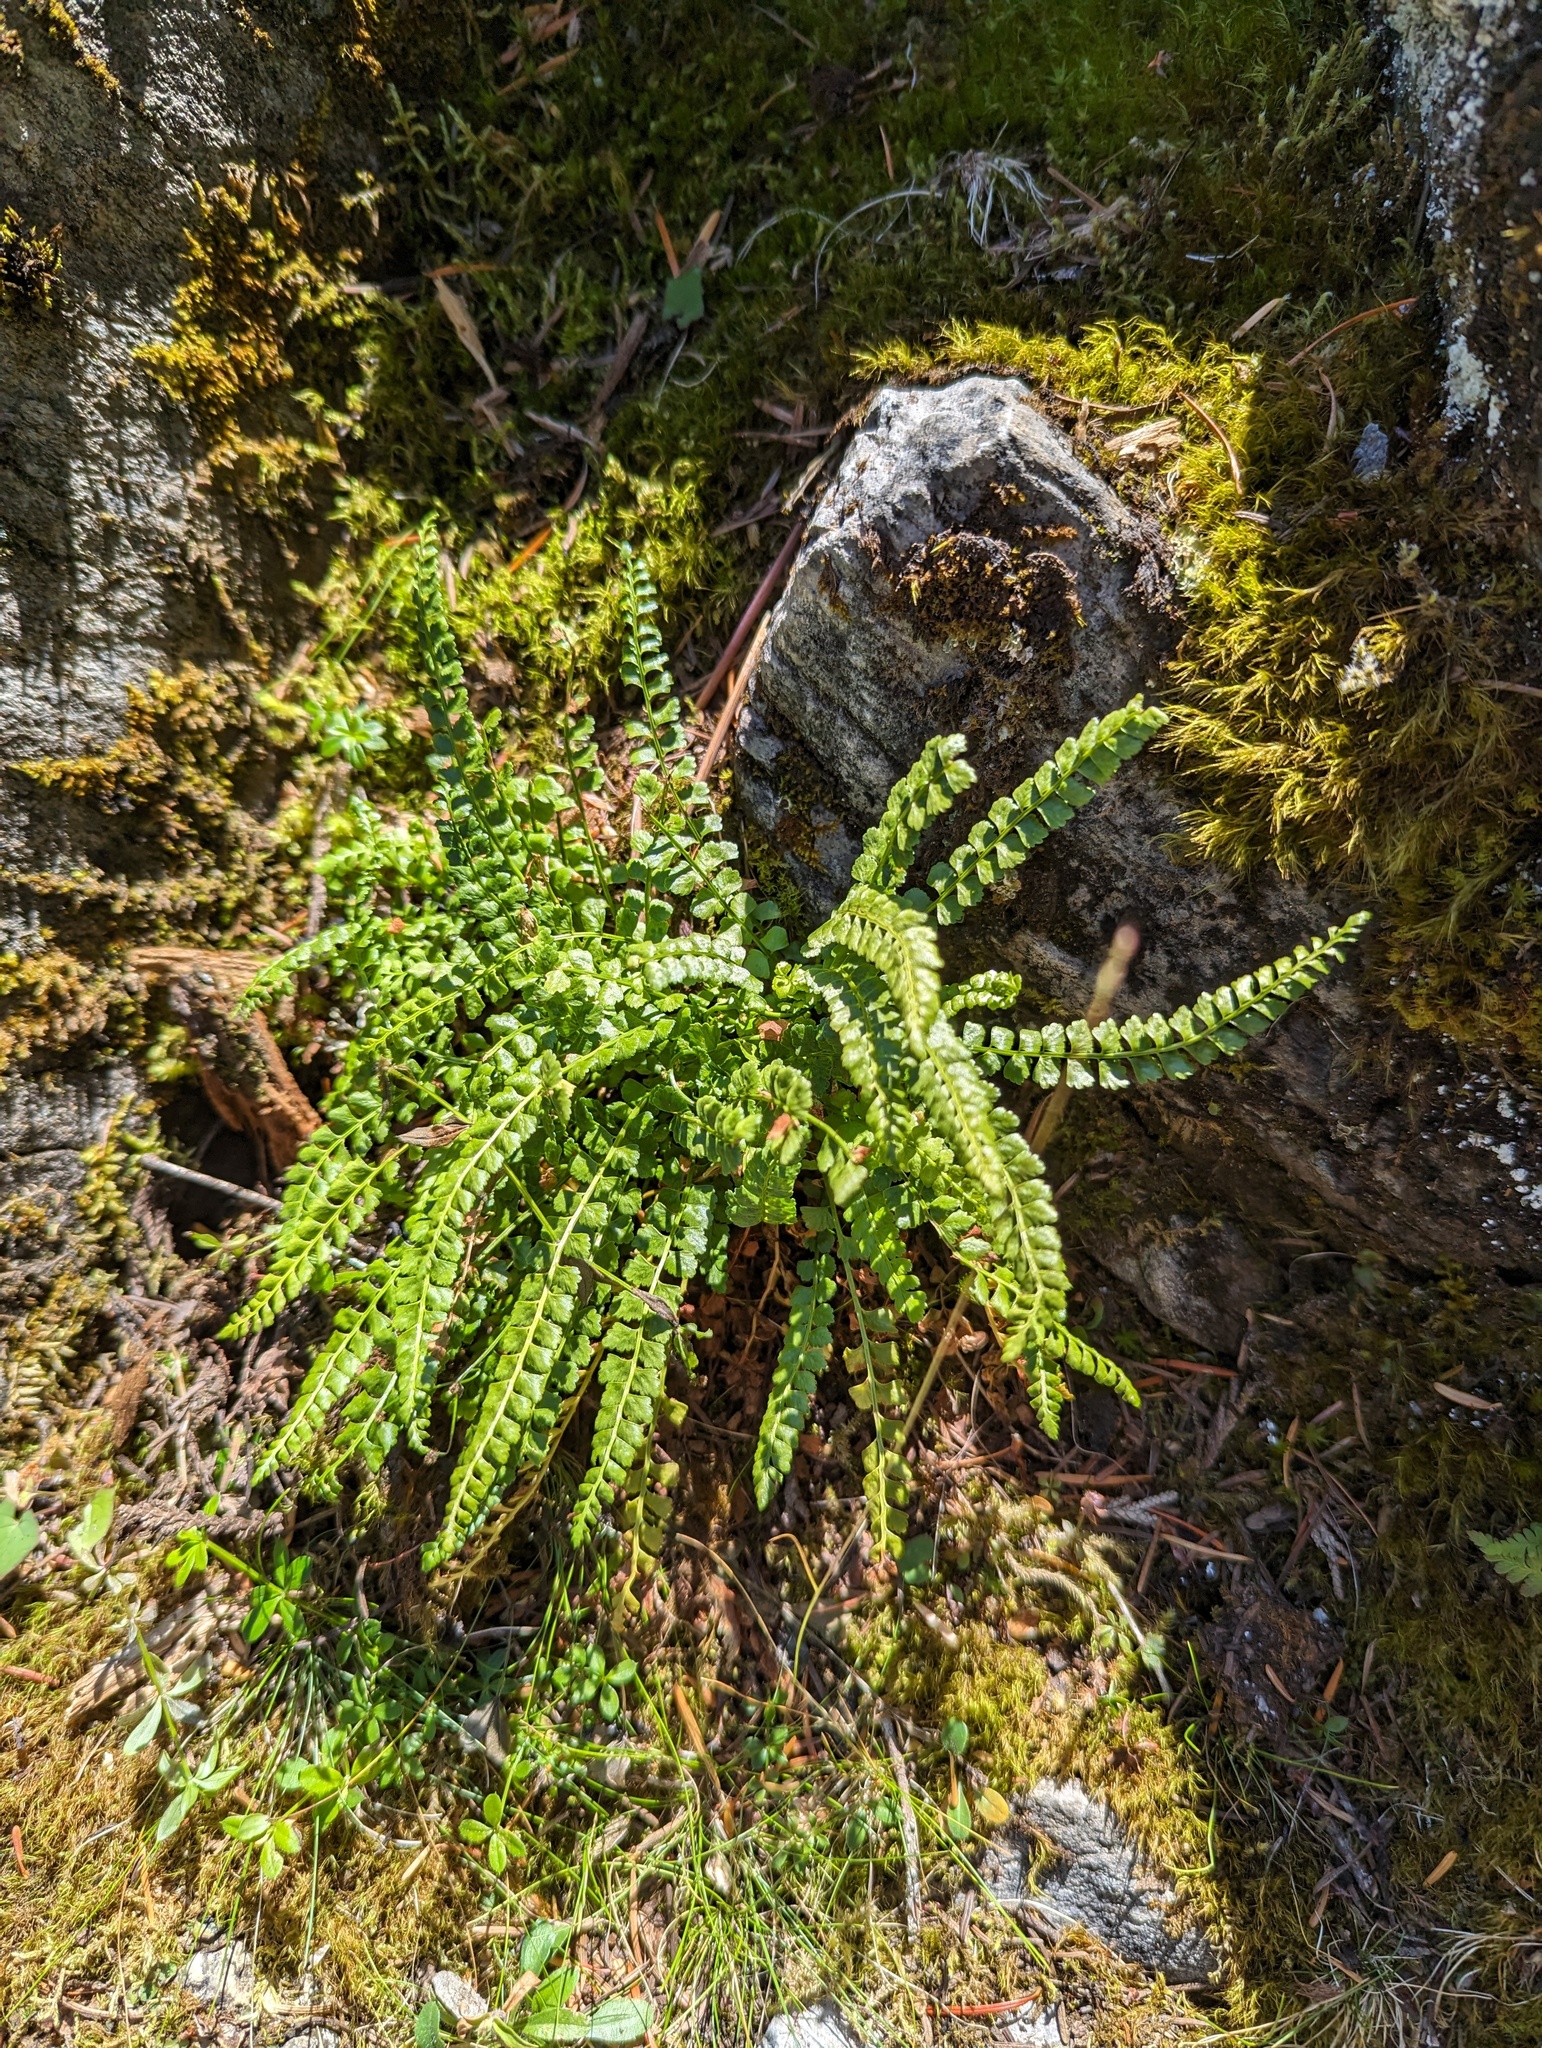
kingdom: Plantae
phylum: Tracheophyta
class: Polypodiopsida
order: Polypodiales
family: Aspleniaceae
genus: Asplenium
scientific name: Asplenium viride
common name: Green spleenwort
